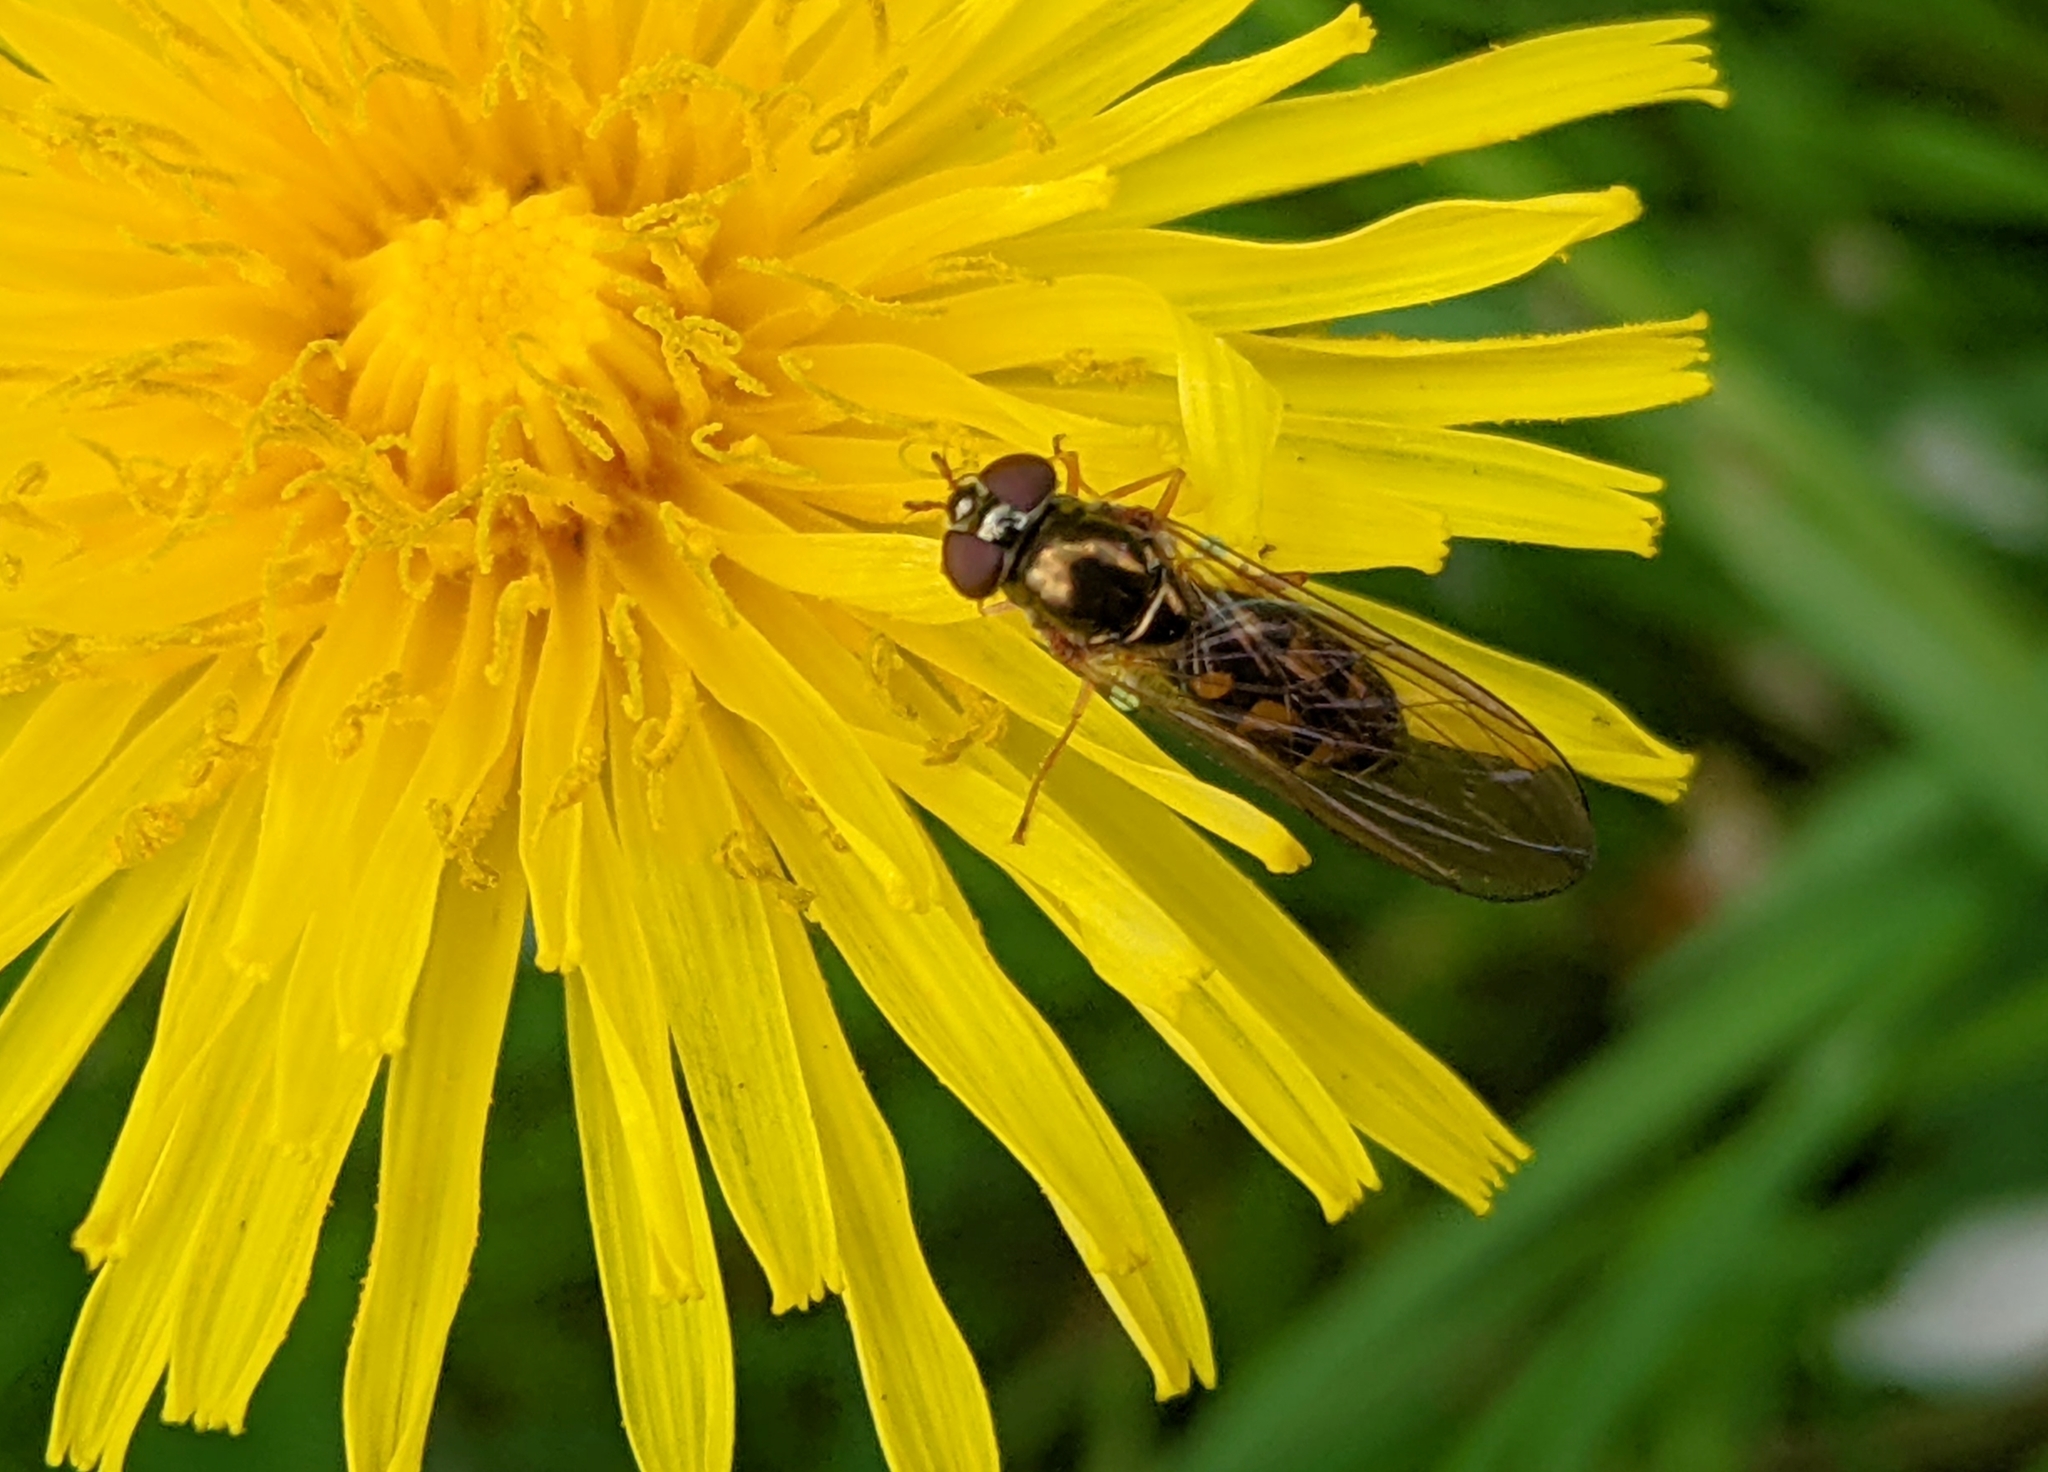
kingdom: Animalia
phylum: Arthropoda
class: Insecta
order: Diptera
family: Syrphidae
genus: Melanostoma
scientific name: Melanostoma
